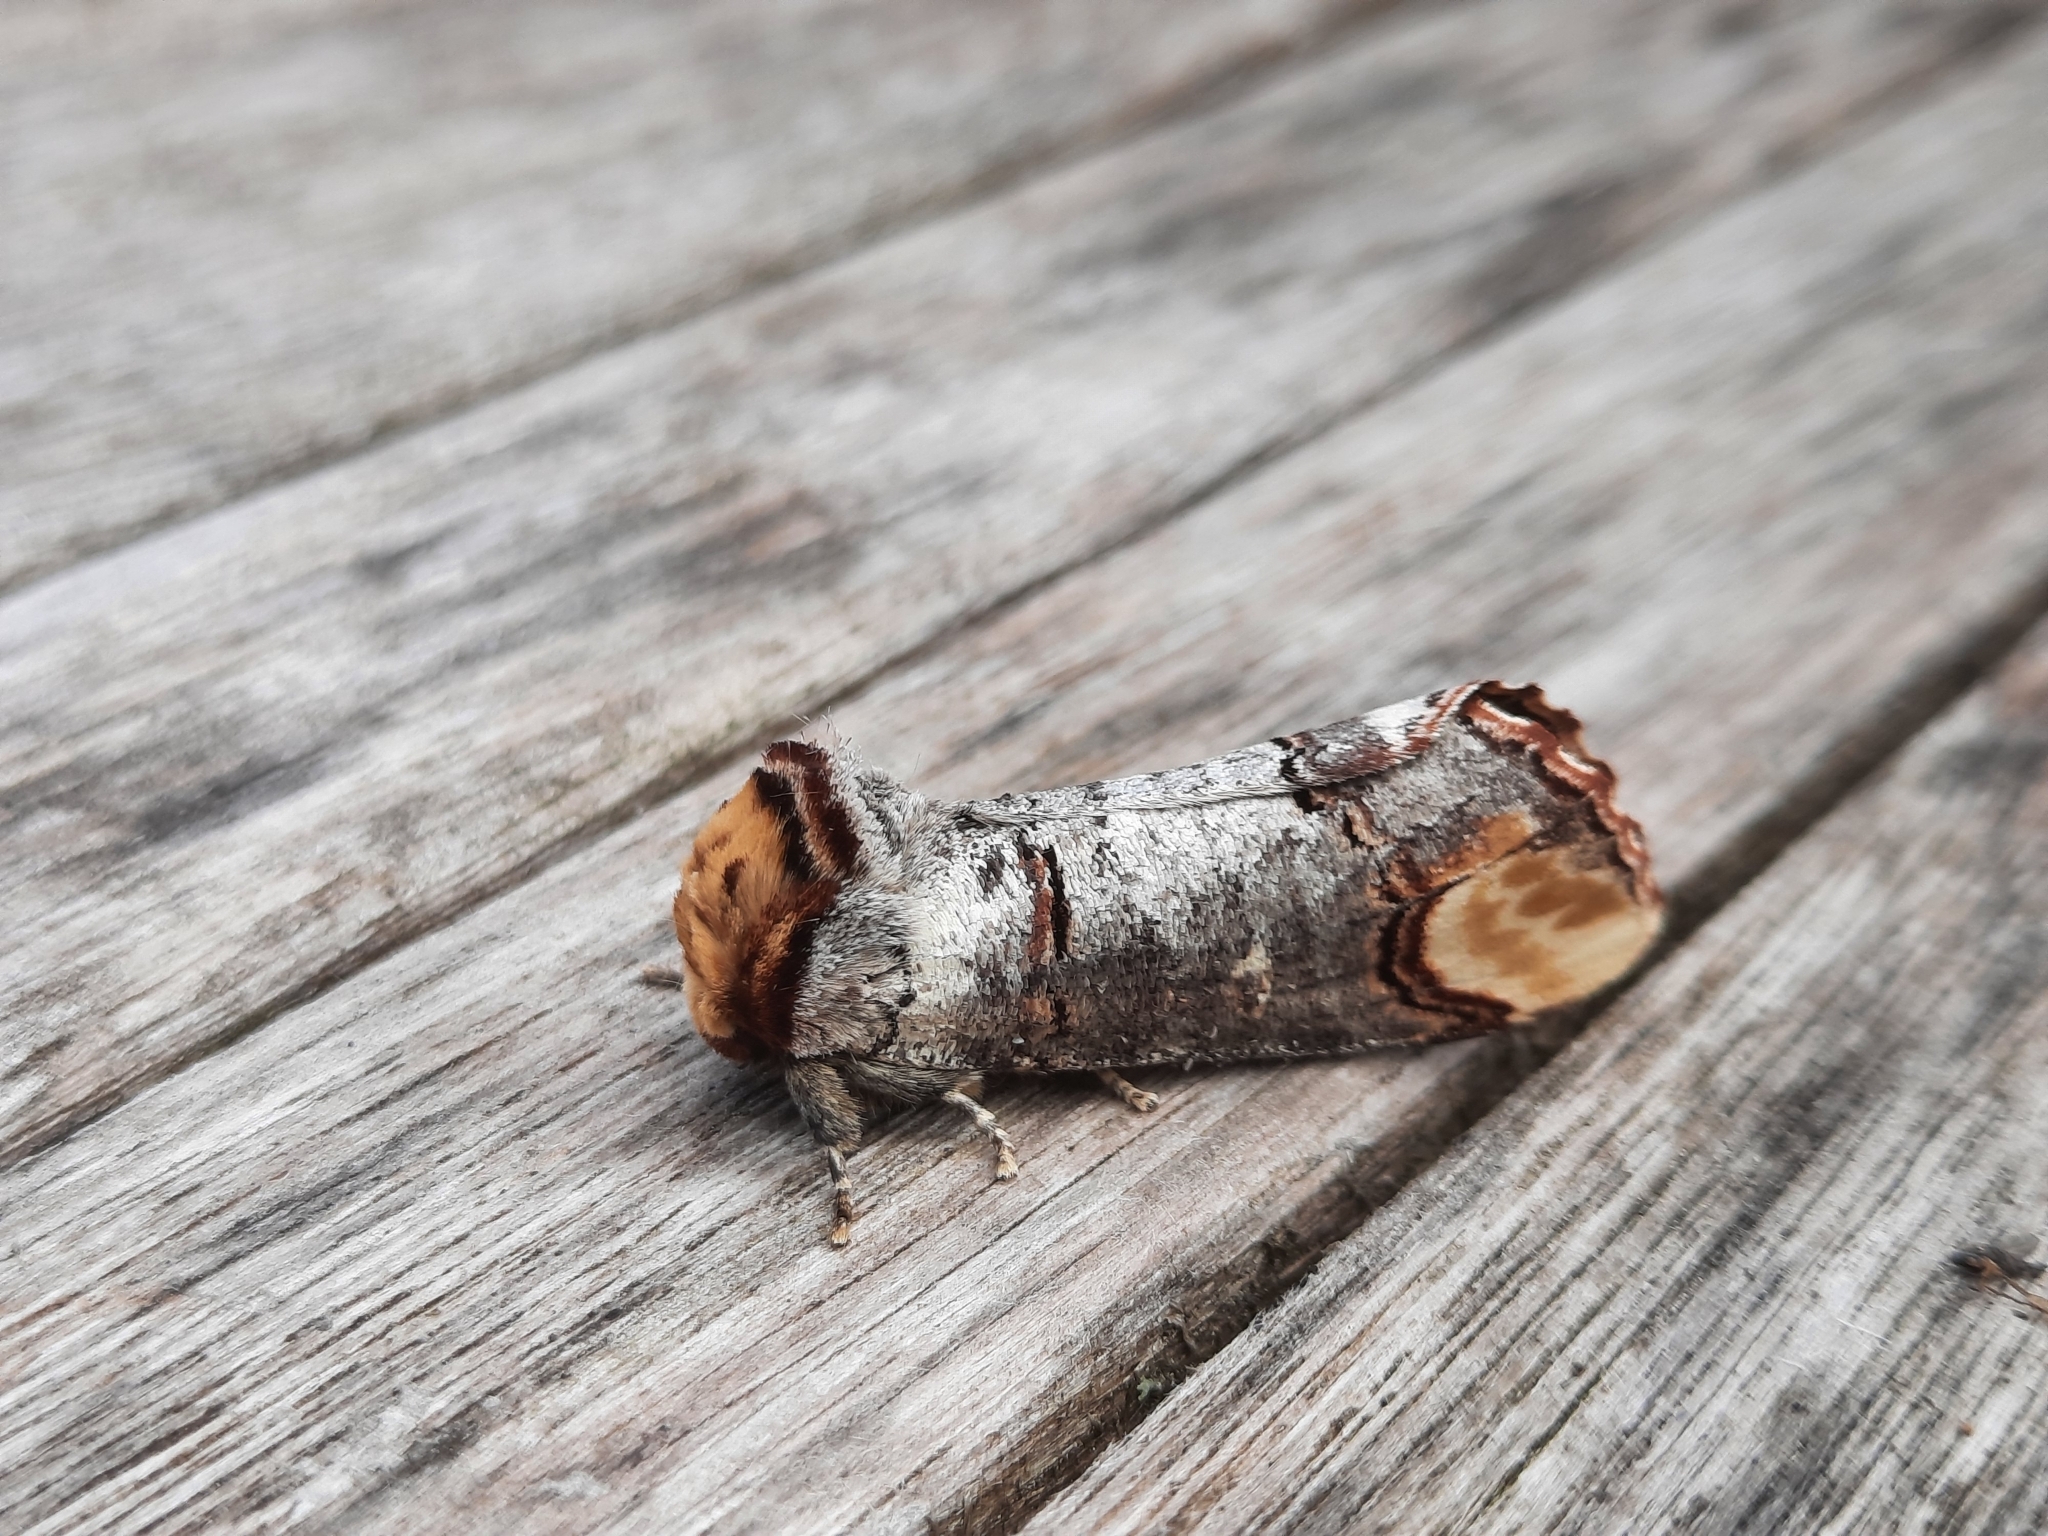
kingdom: Animalia
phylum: Arthropoda
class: Insecta
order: Lepidoptera
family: Notodontidae
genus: Phalera
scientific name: Phalera bucephala
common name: Buff-tip
